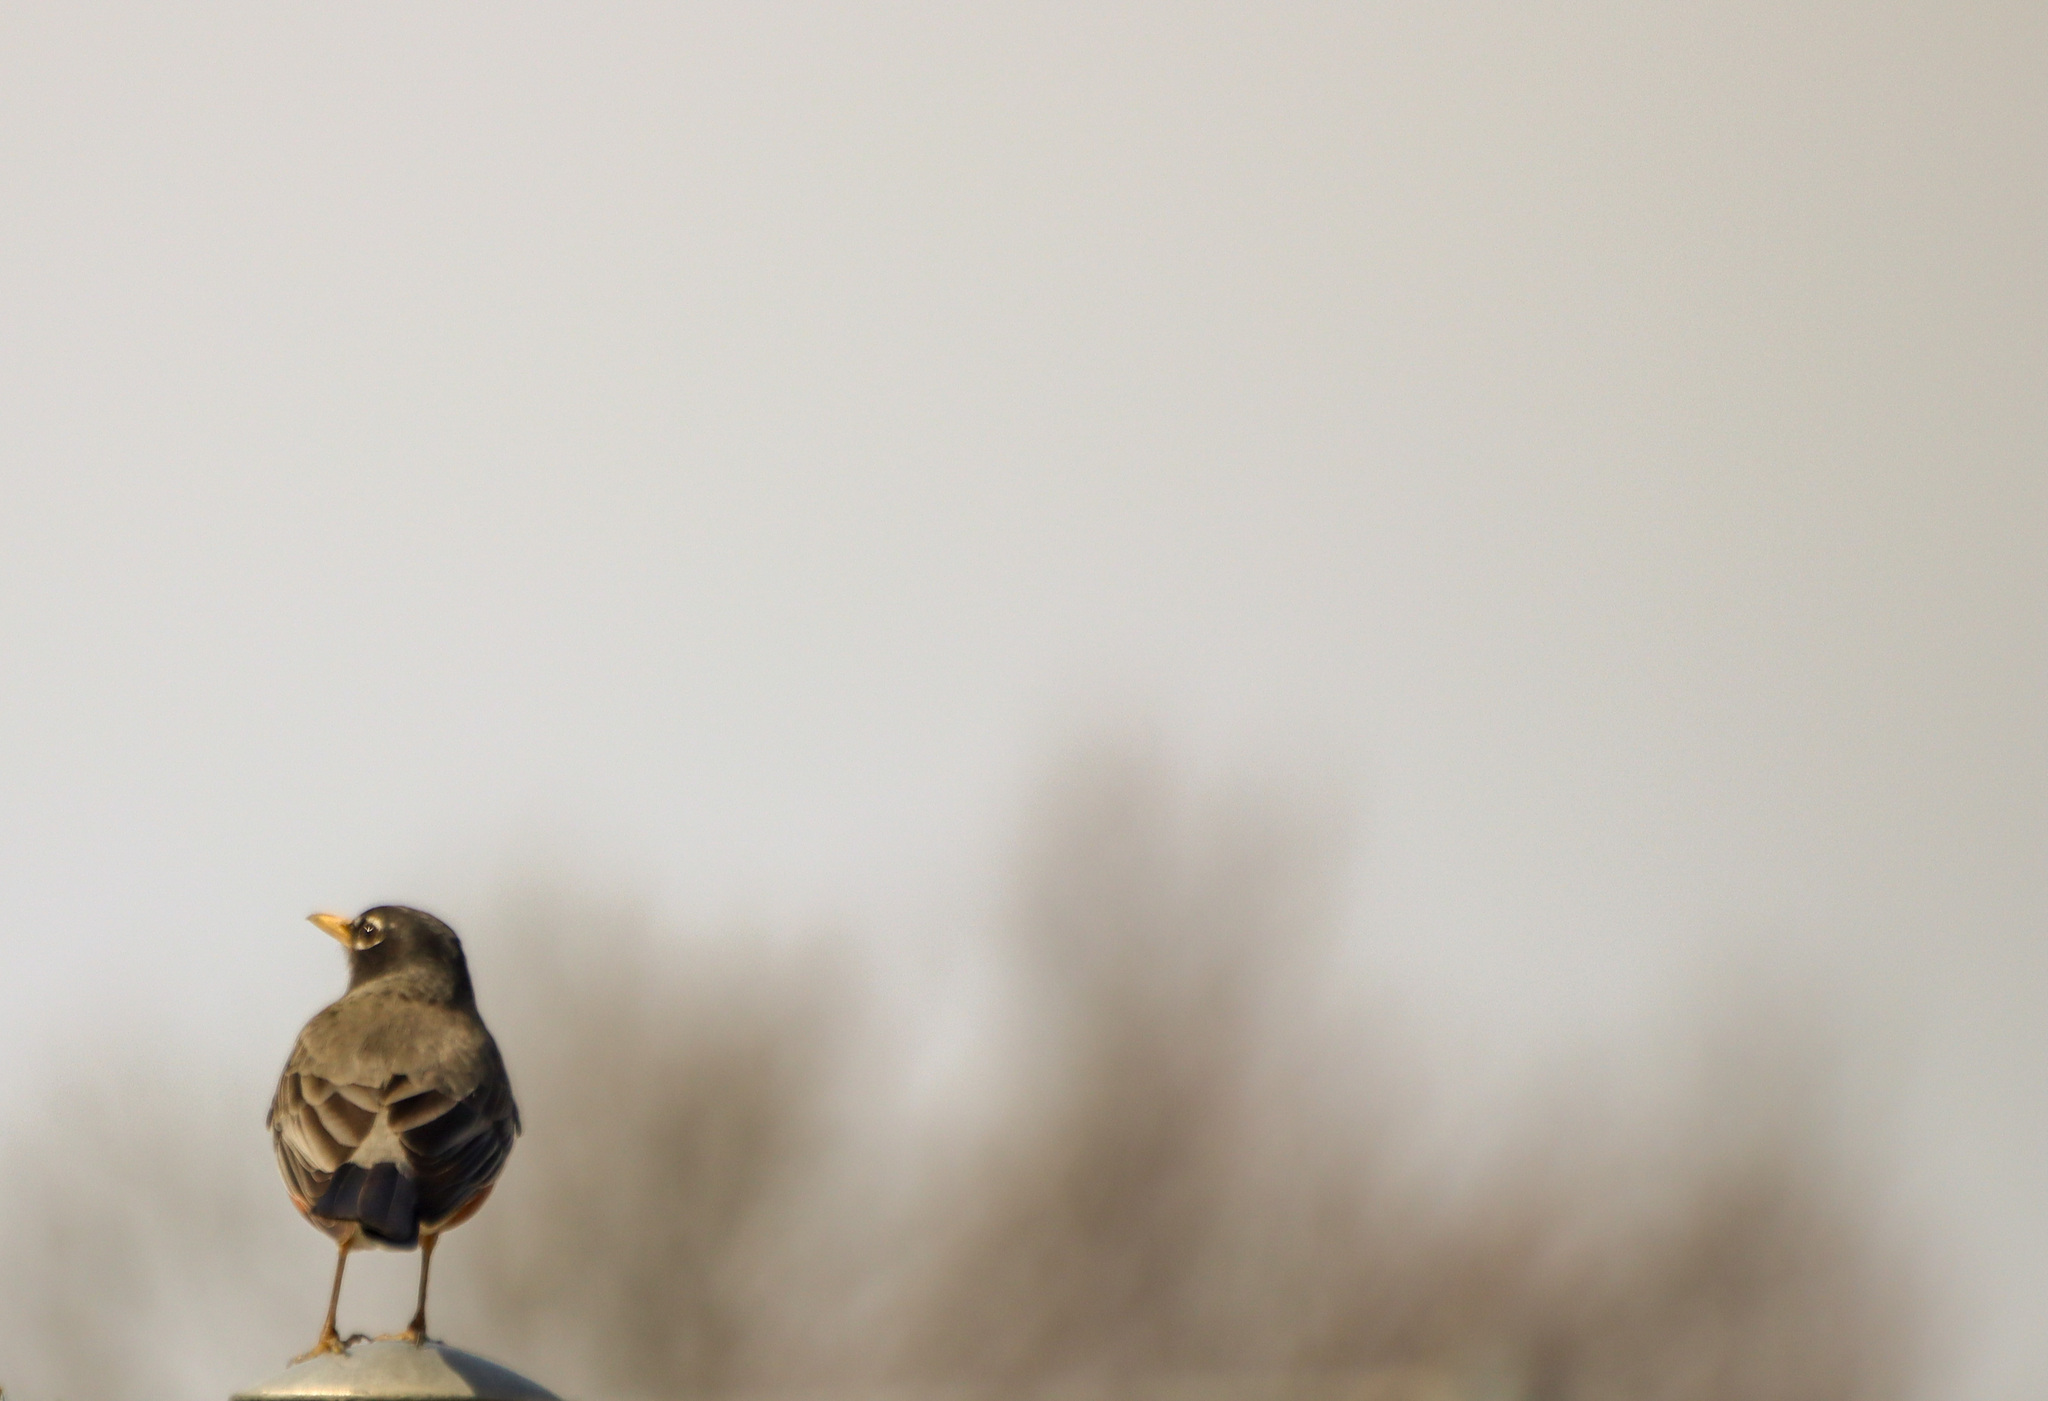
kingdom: Animalia
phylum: Chordata
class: Aves
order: Passeriformes
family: Turdidae
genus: Turdus
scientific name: Turdus migratorius
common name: American robin
